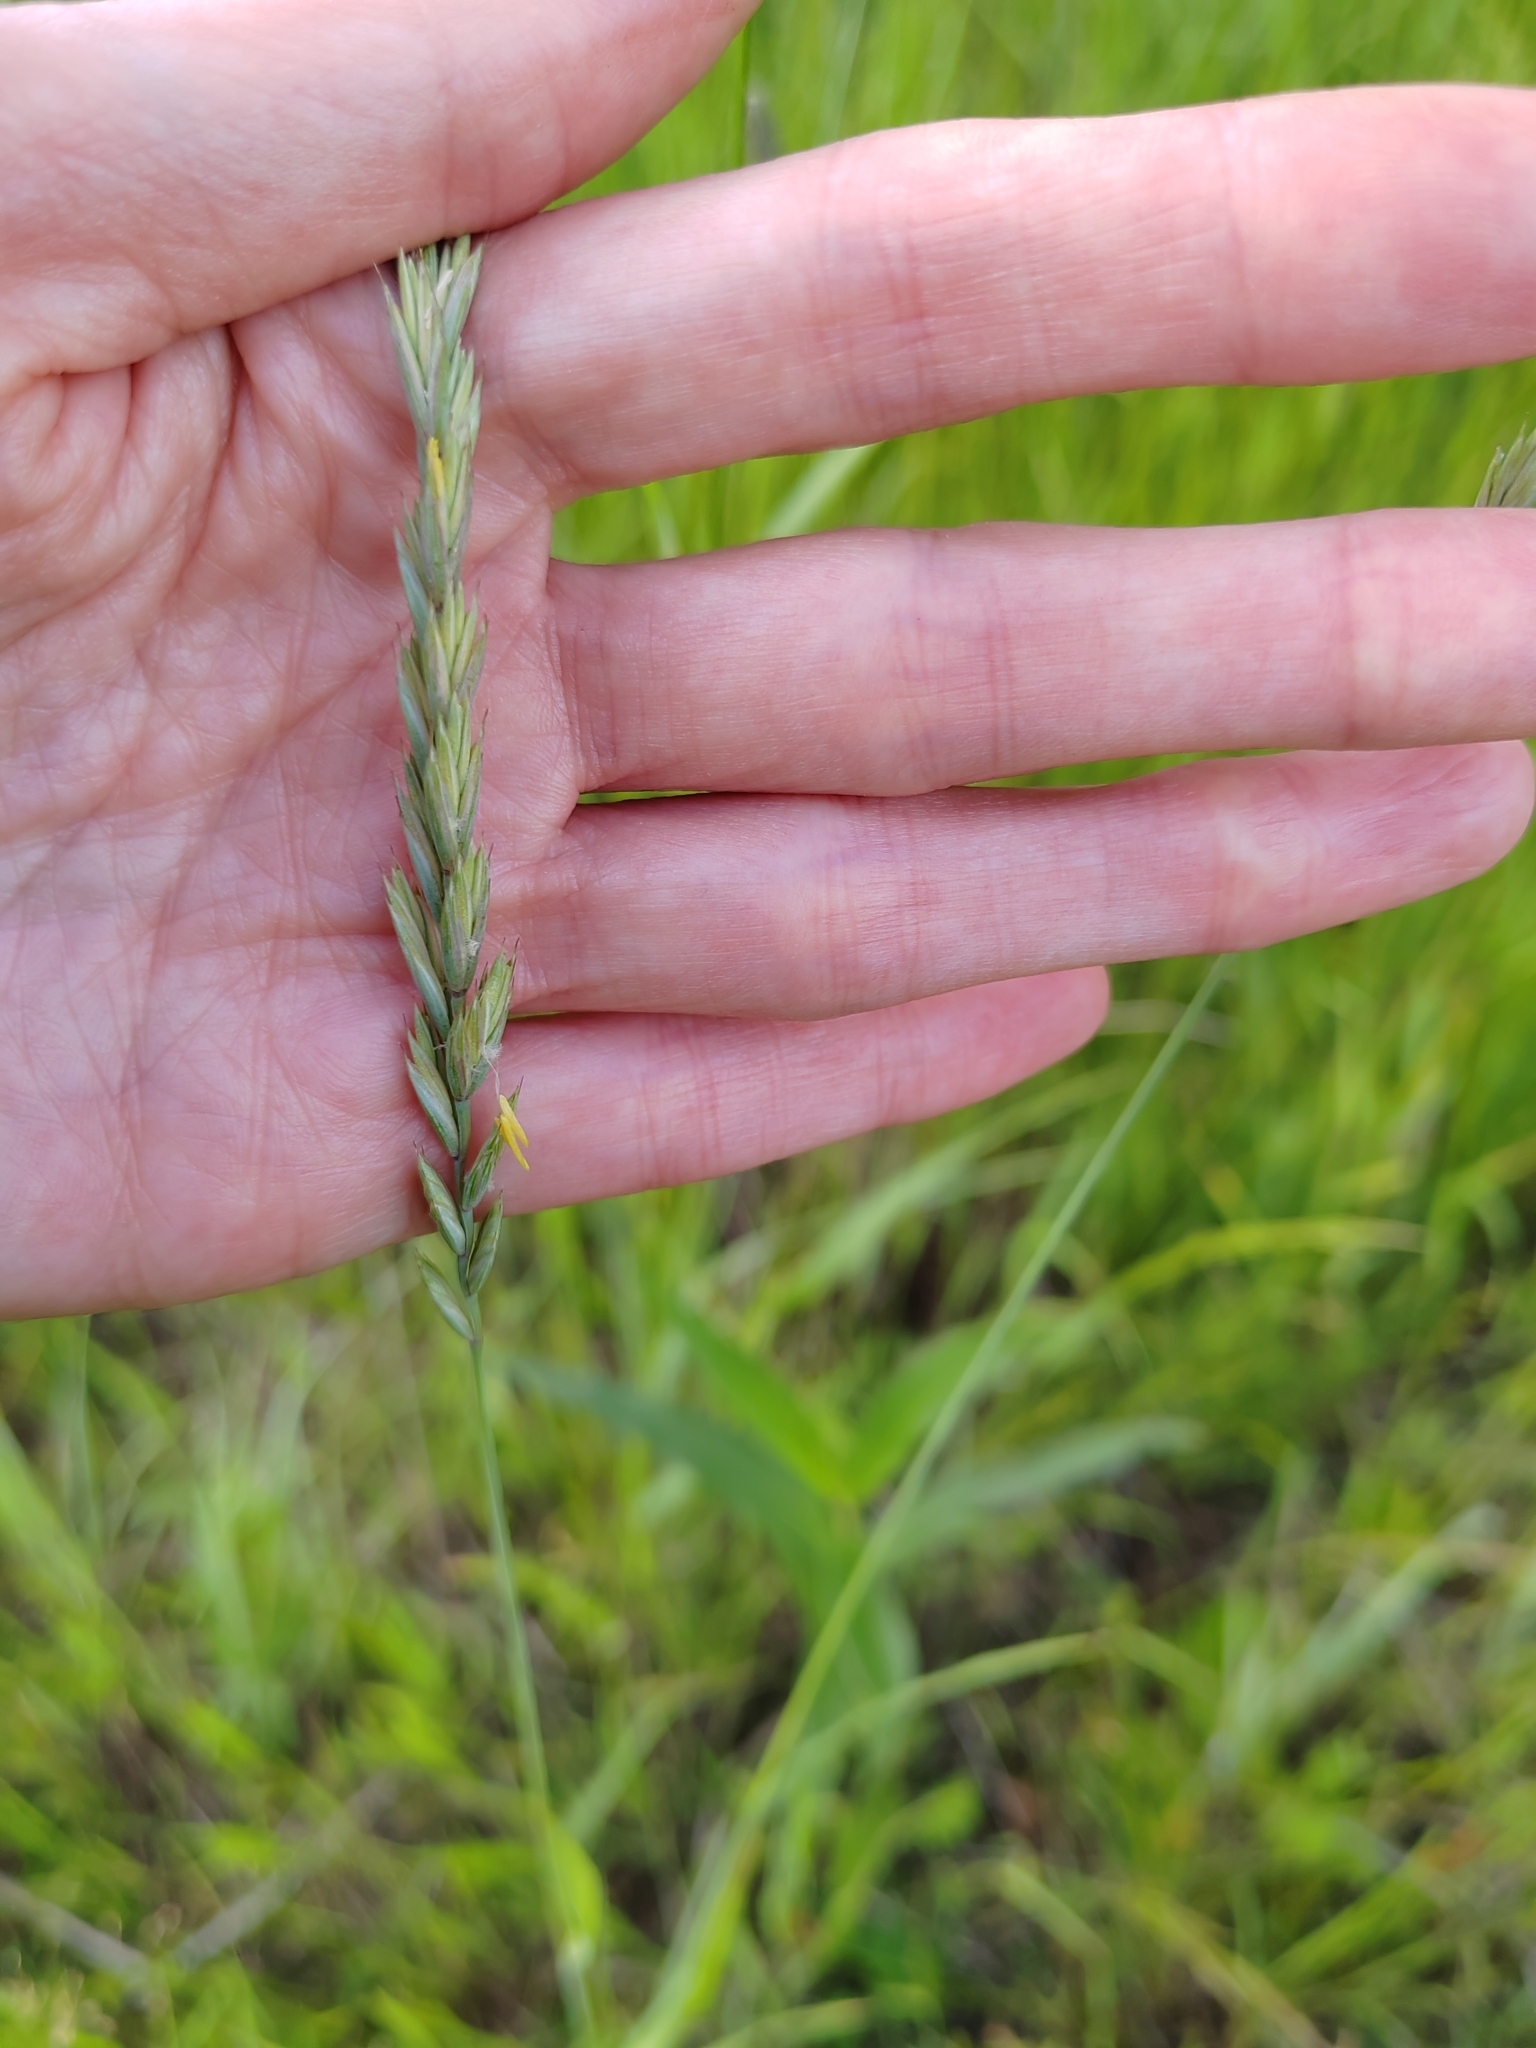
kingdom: Plantae
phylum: Tracheophyta
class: Liliopsida
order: Poales
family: Poaceae
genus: Elymus
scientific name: Elymus repens
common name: Quackgrass
